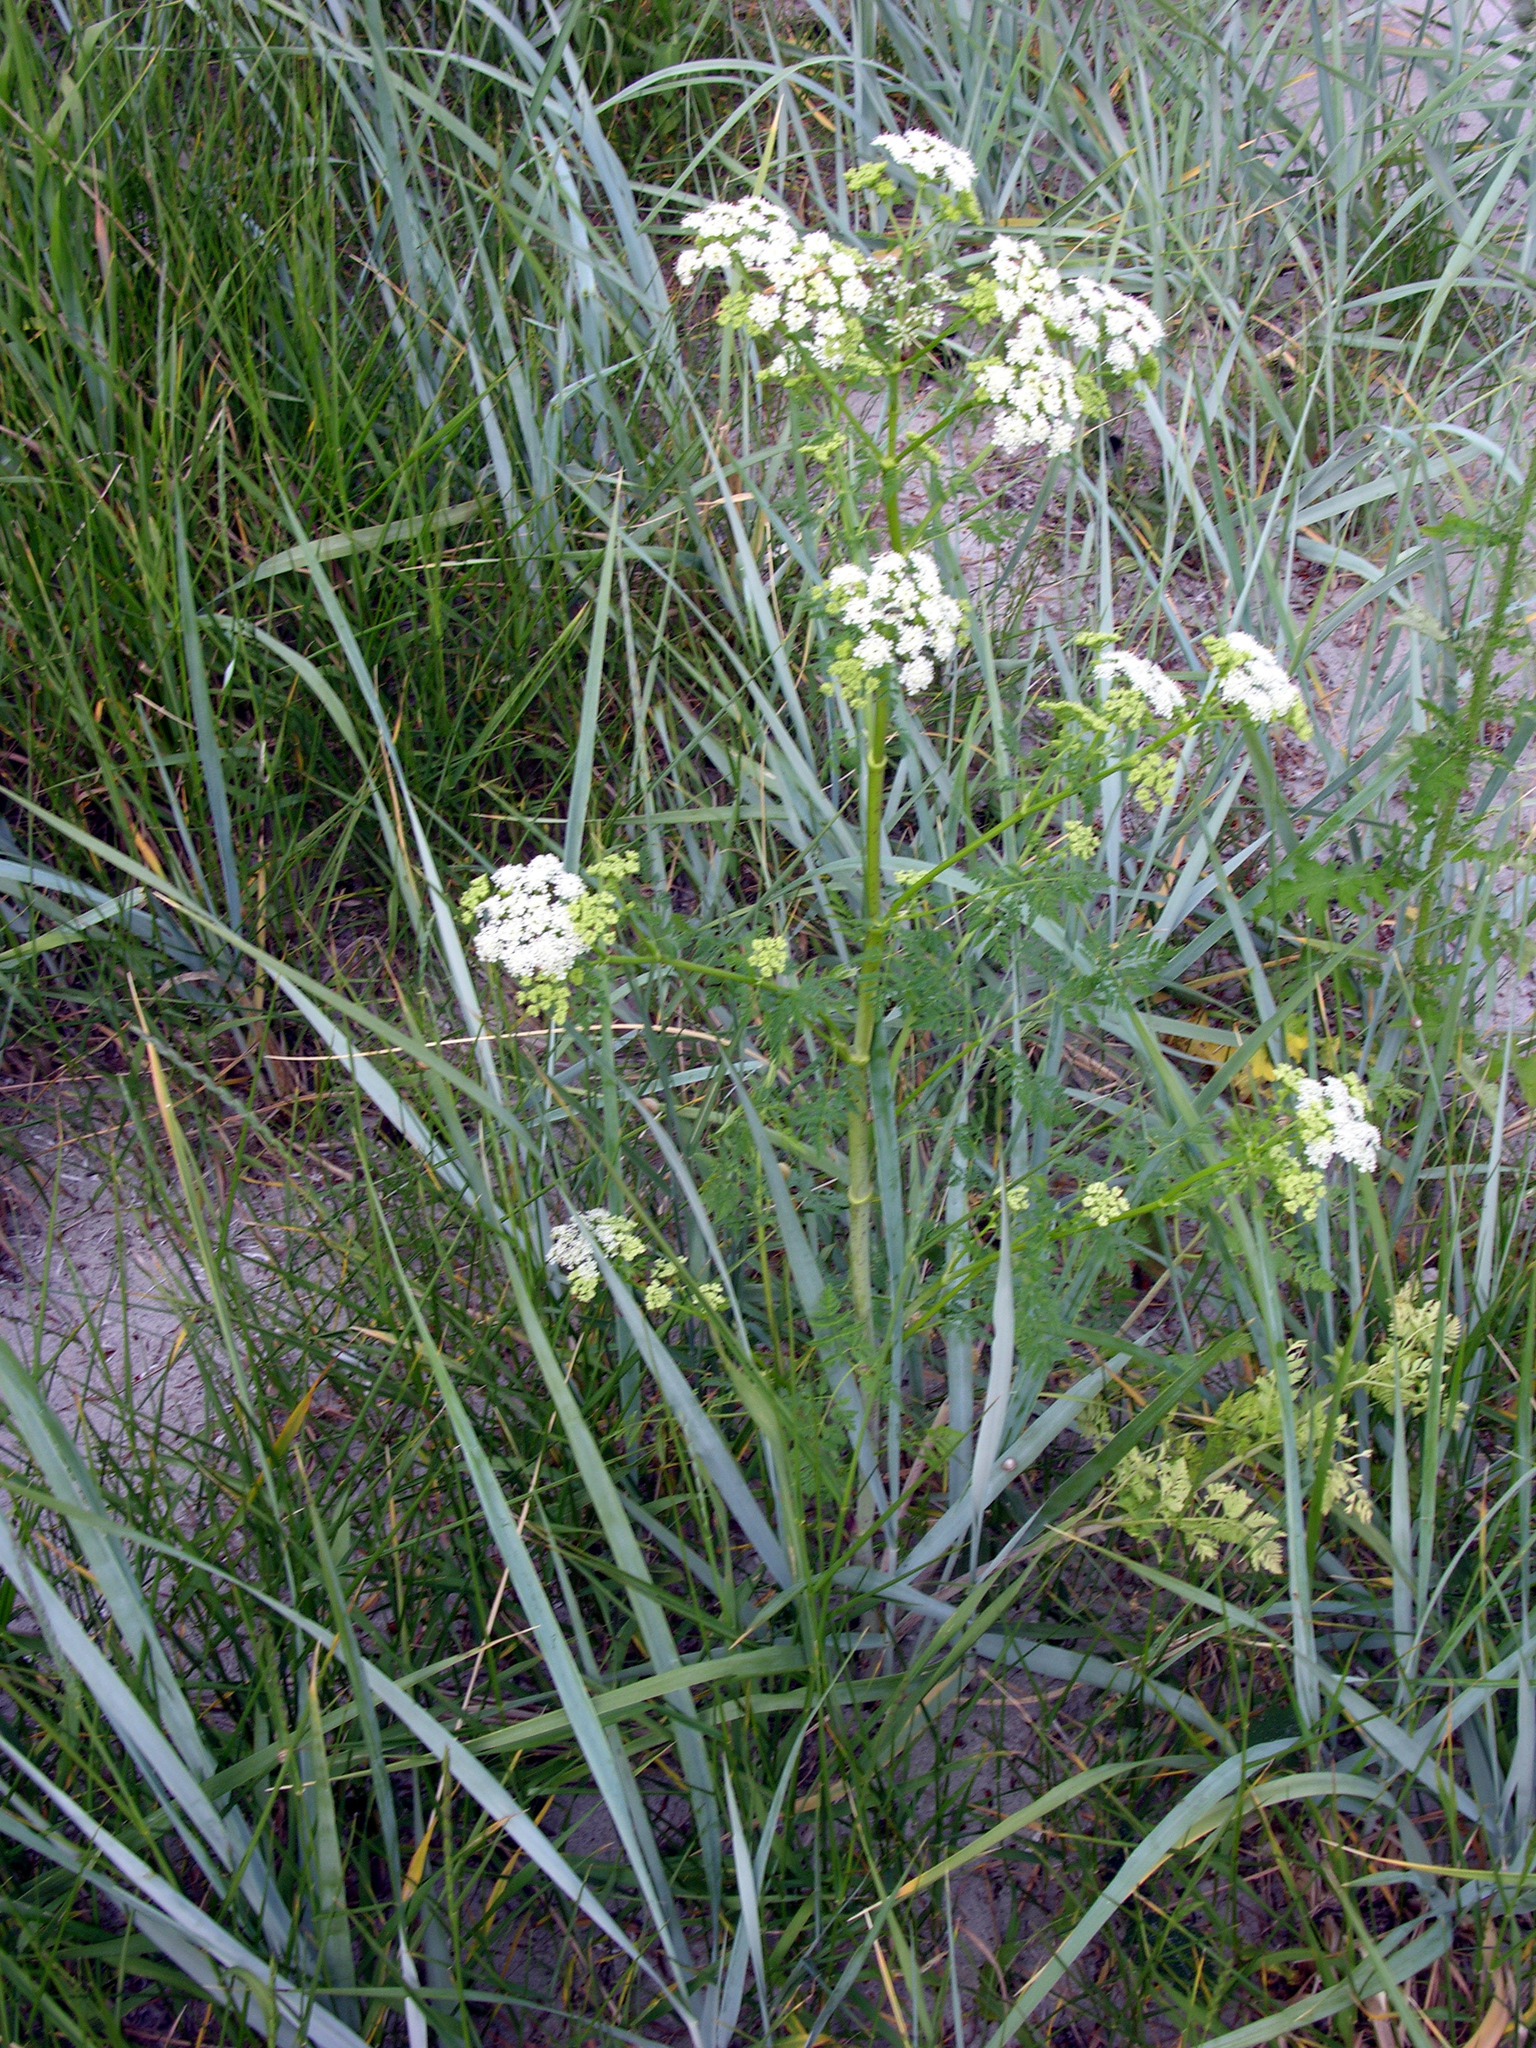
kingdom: Plantae
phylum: Tracheophyta
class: Magnoliopsida
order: Apiales
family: Apiaceae
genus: Conium
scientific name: Conium maculatum
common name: Hemlock
